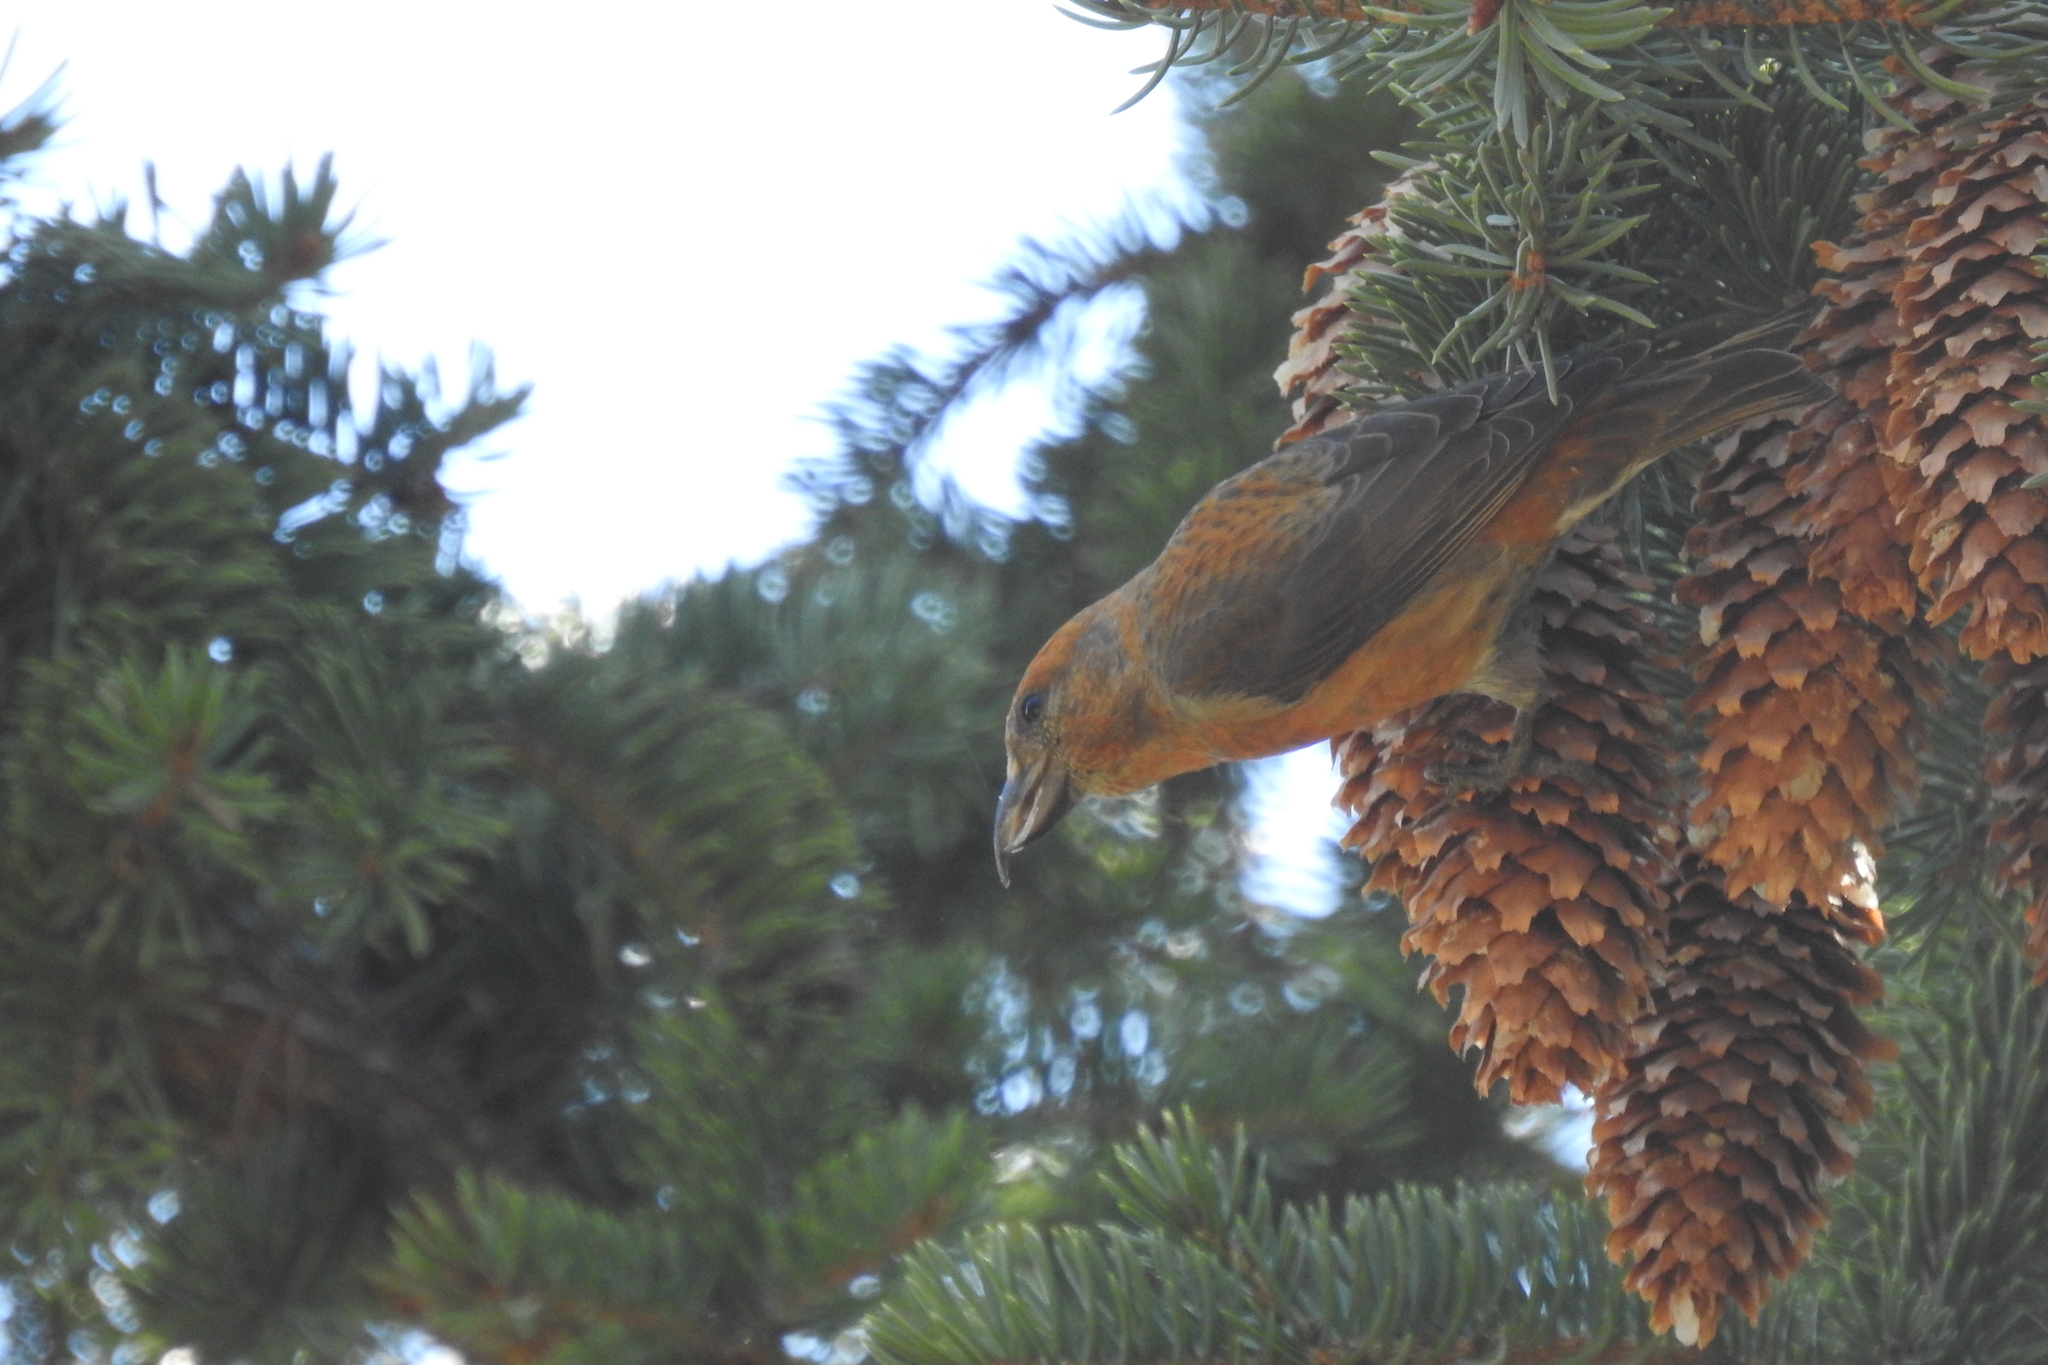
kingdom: Animalia
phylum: Chordata
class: Aves
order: Passeriformes
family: Fringillidae
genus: Loxia
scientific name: Loxia curvirostra
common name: Red crossbill
